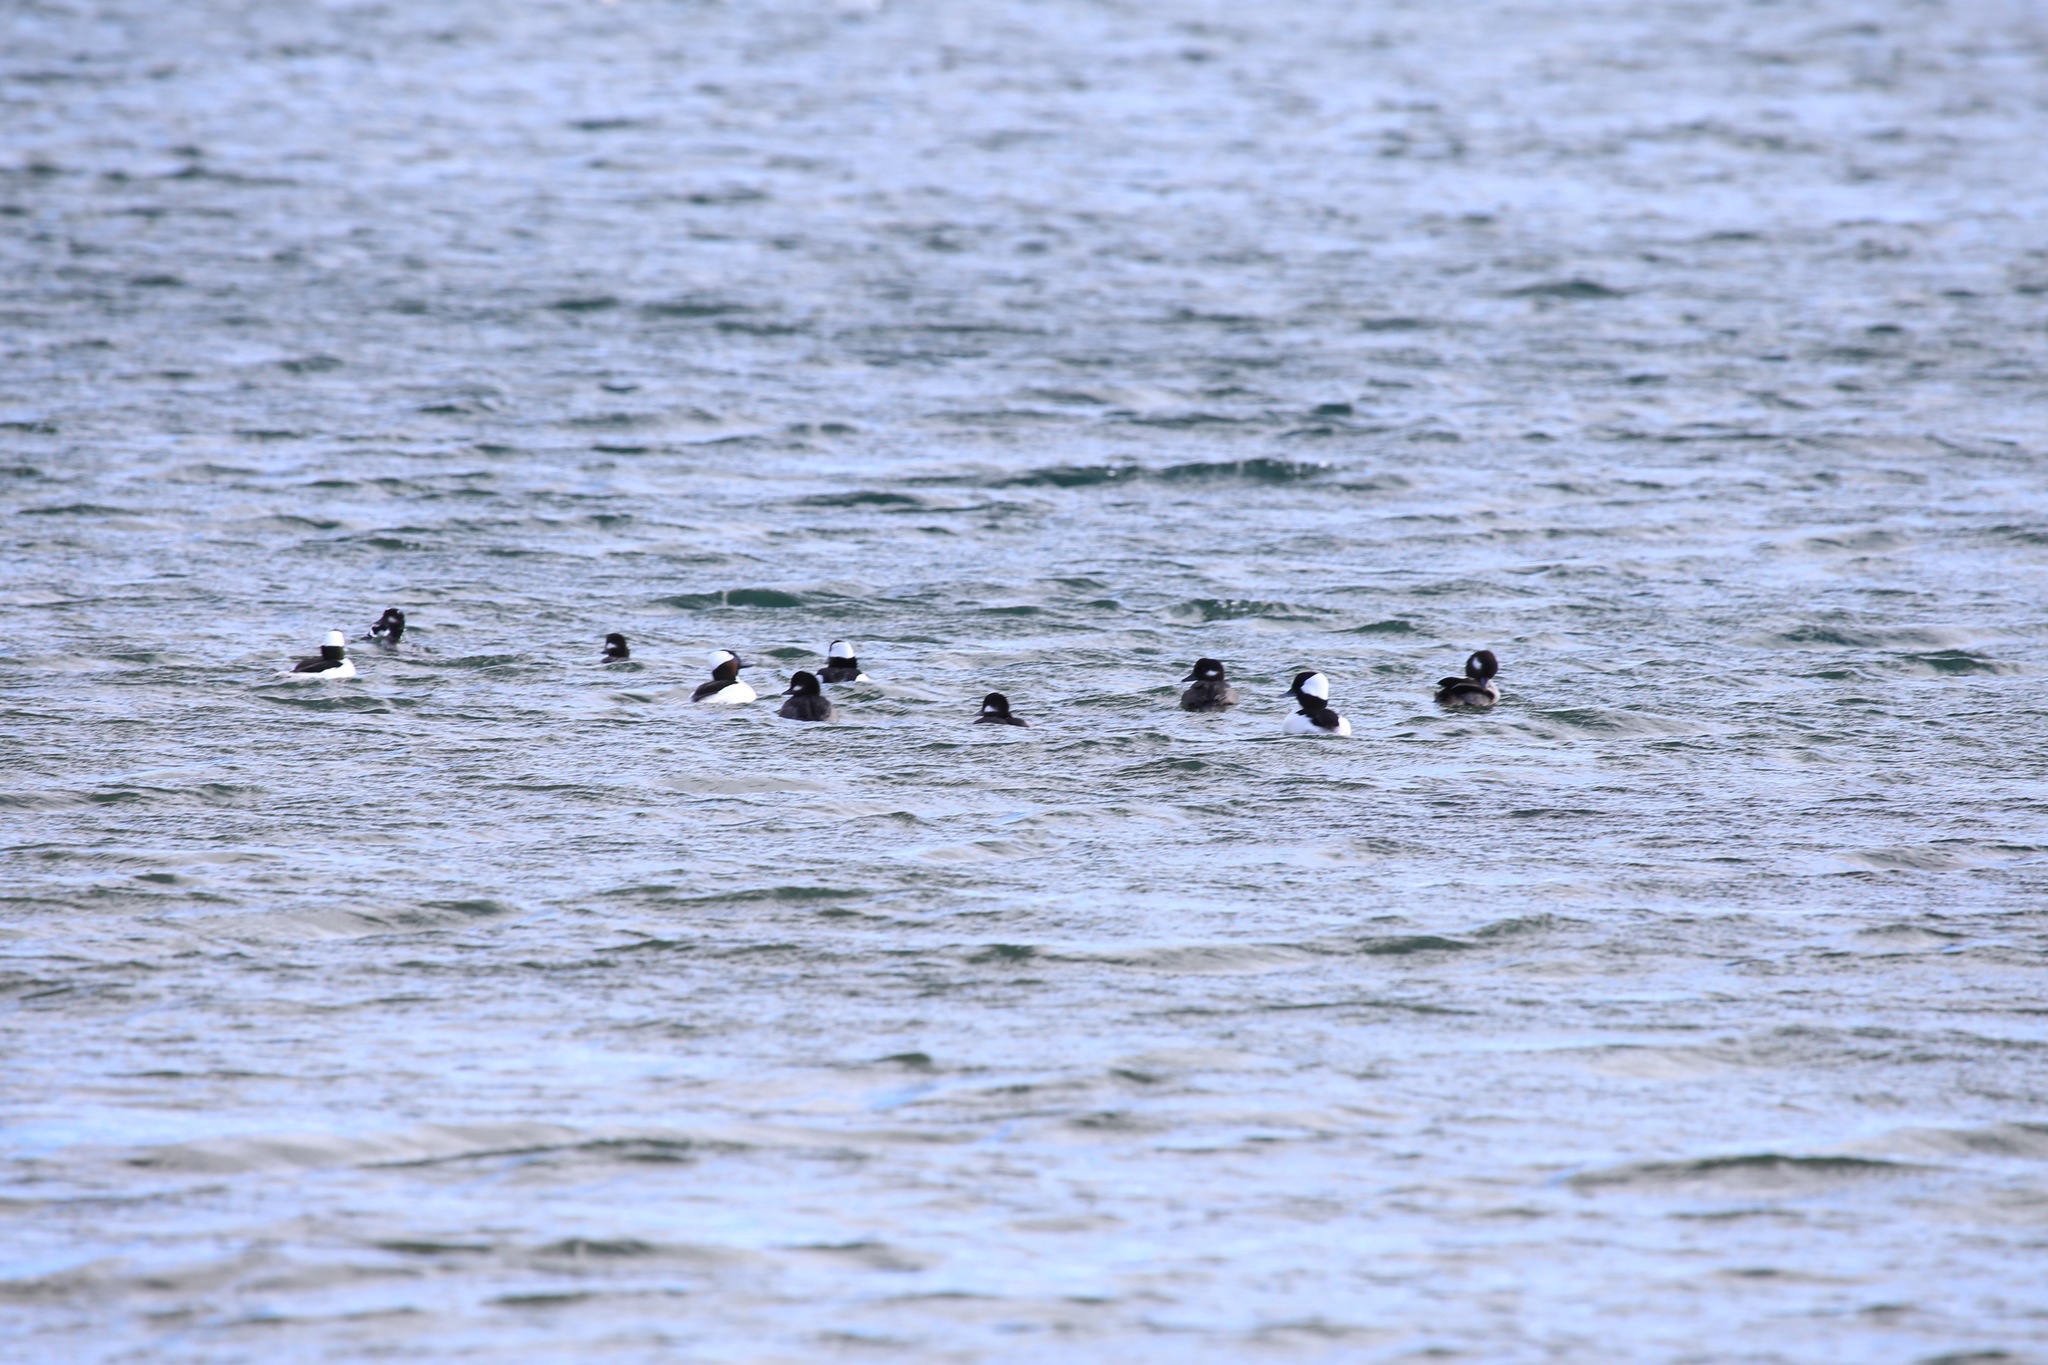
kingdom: Animalia
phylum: Chordata
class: Aves
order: Anseriformes
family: Anatidae
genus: Bucephala
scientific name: Bucephala albeola
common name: Bufflehead
